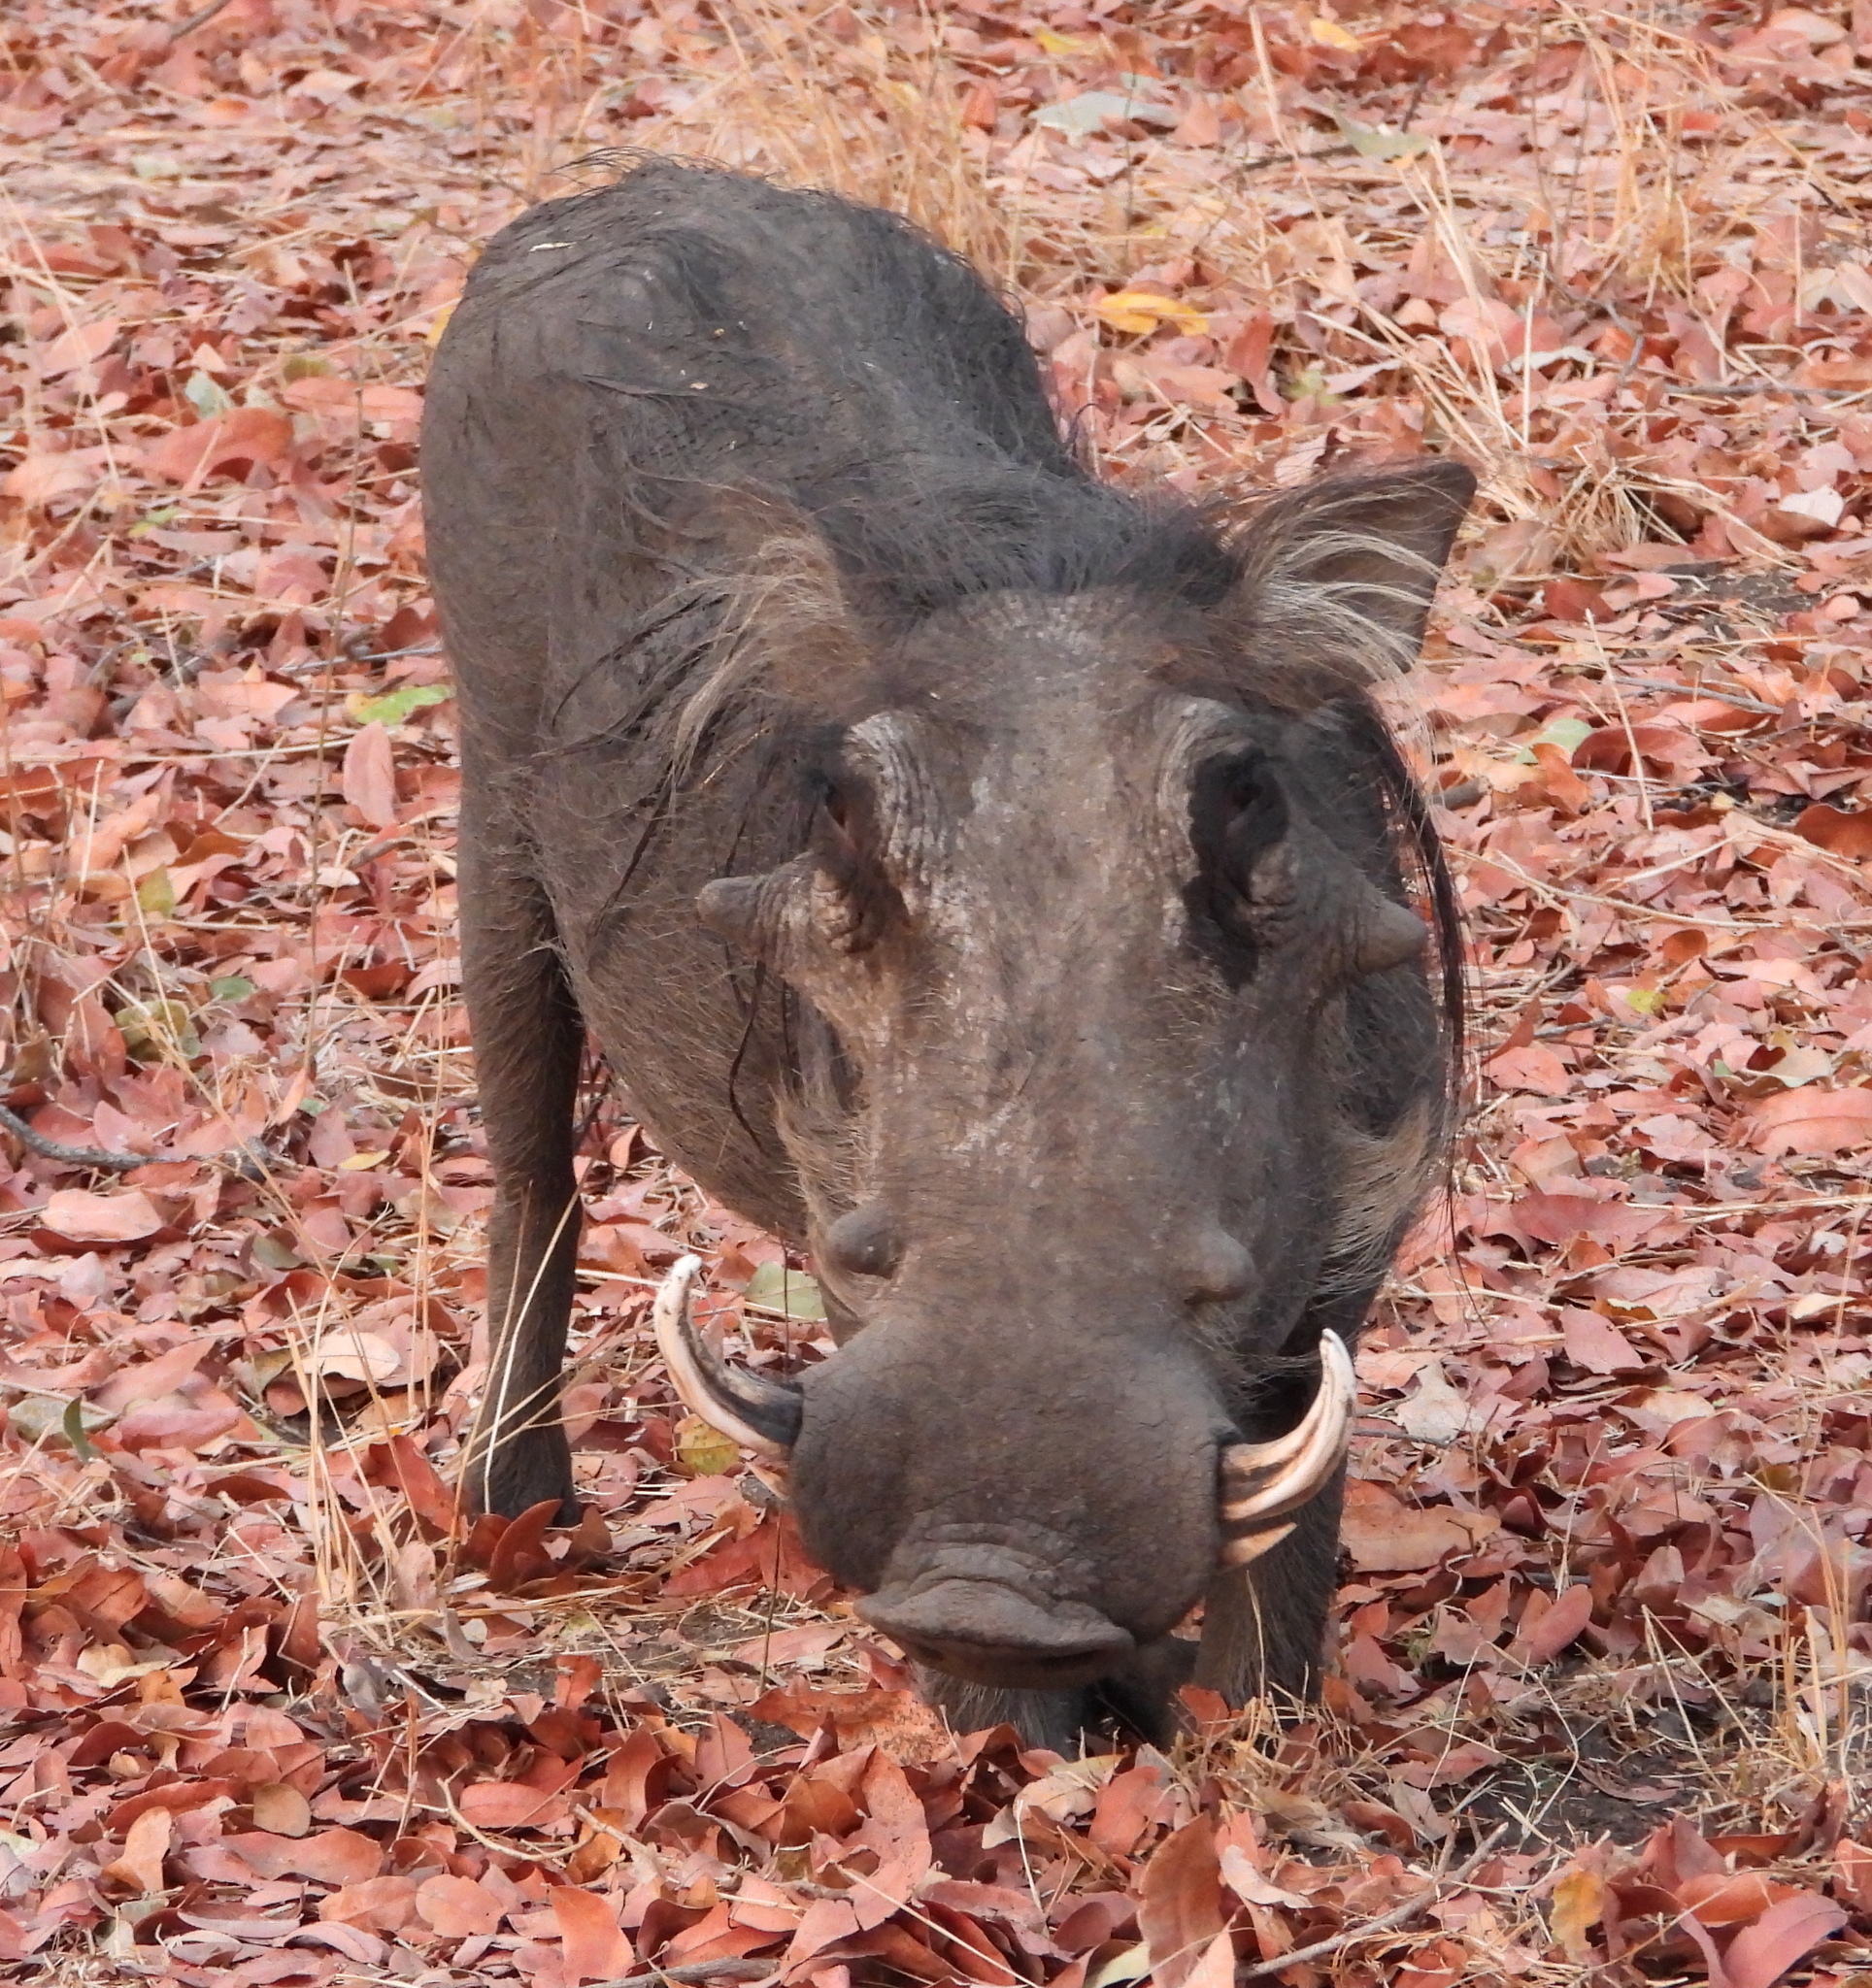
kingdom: Animalia
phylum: Chordata
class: Mammalia
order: Artiodactyla
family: Suidae
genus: Phacochoerus
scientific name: Phacochoerus africanus
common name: Common warthog
